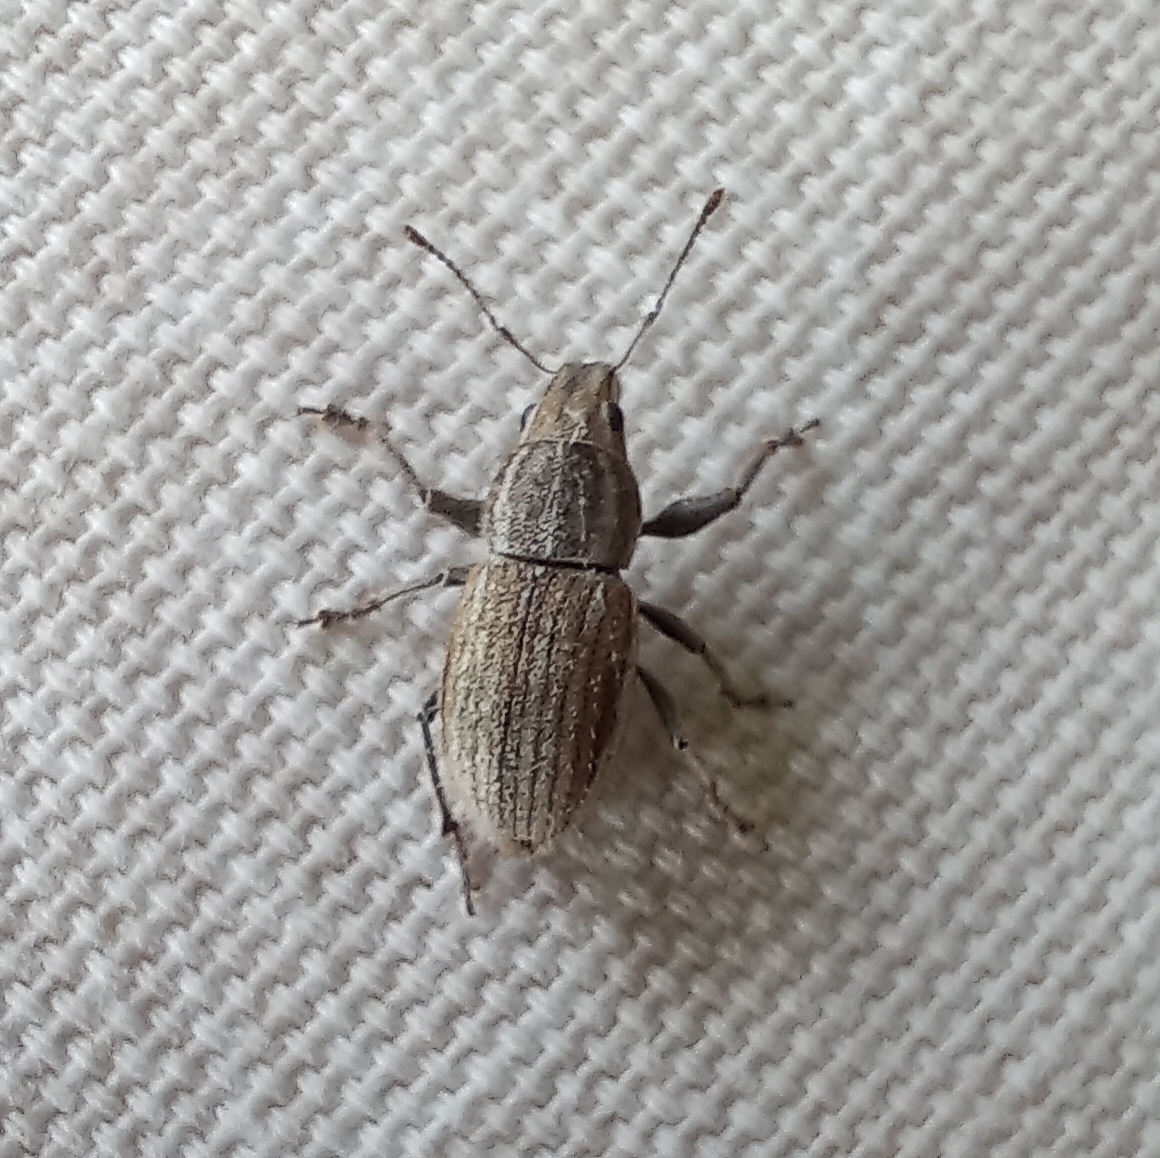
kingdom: Animalia
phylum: Arthropoda
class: Insecta
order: Coleoptera
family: Curculionidae
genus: Naupactus
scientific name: Naupactus leucoloma
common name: Whitefringed beetle
